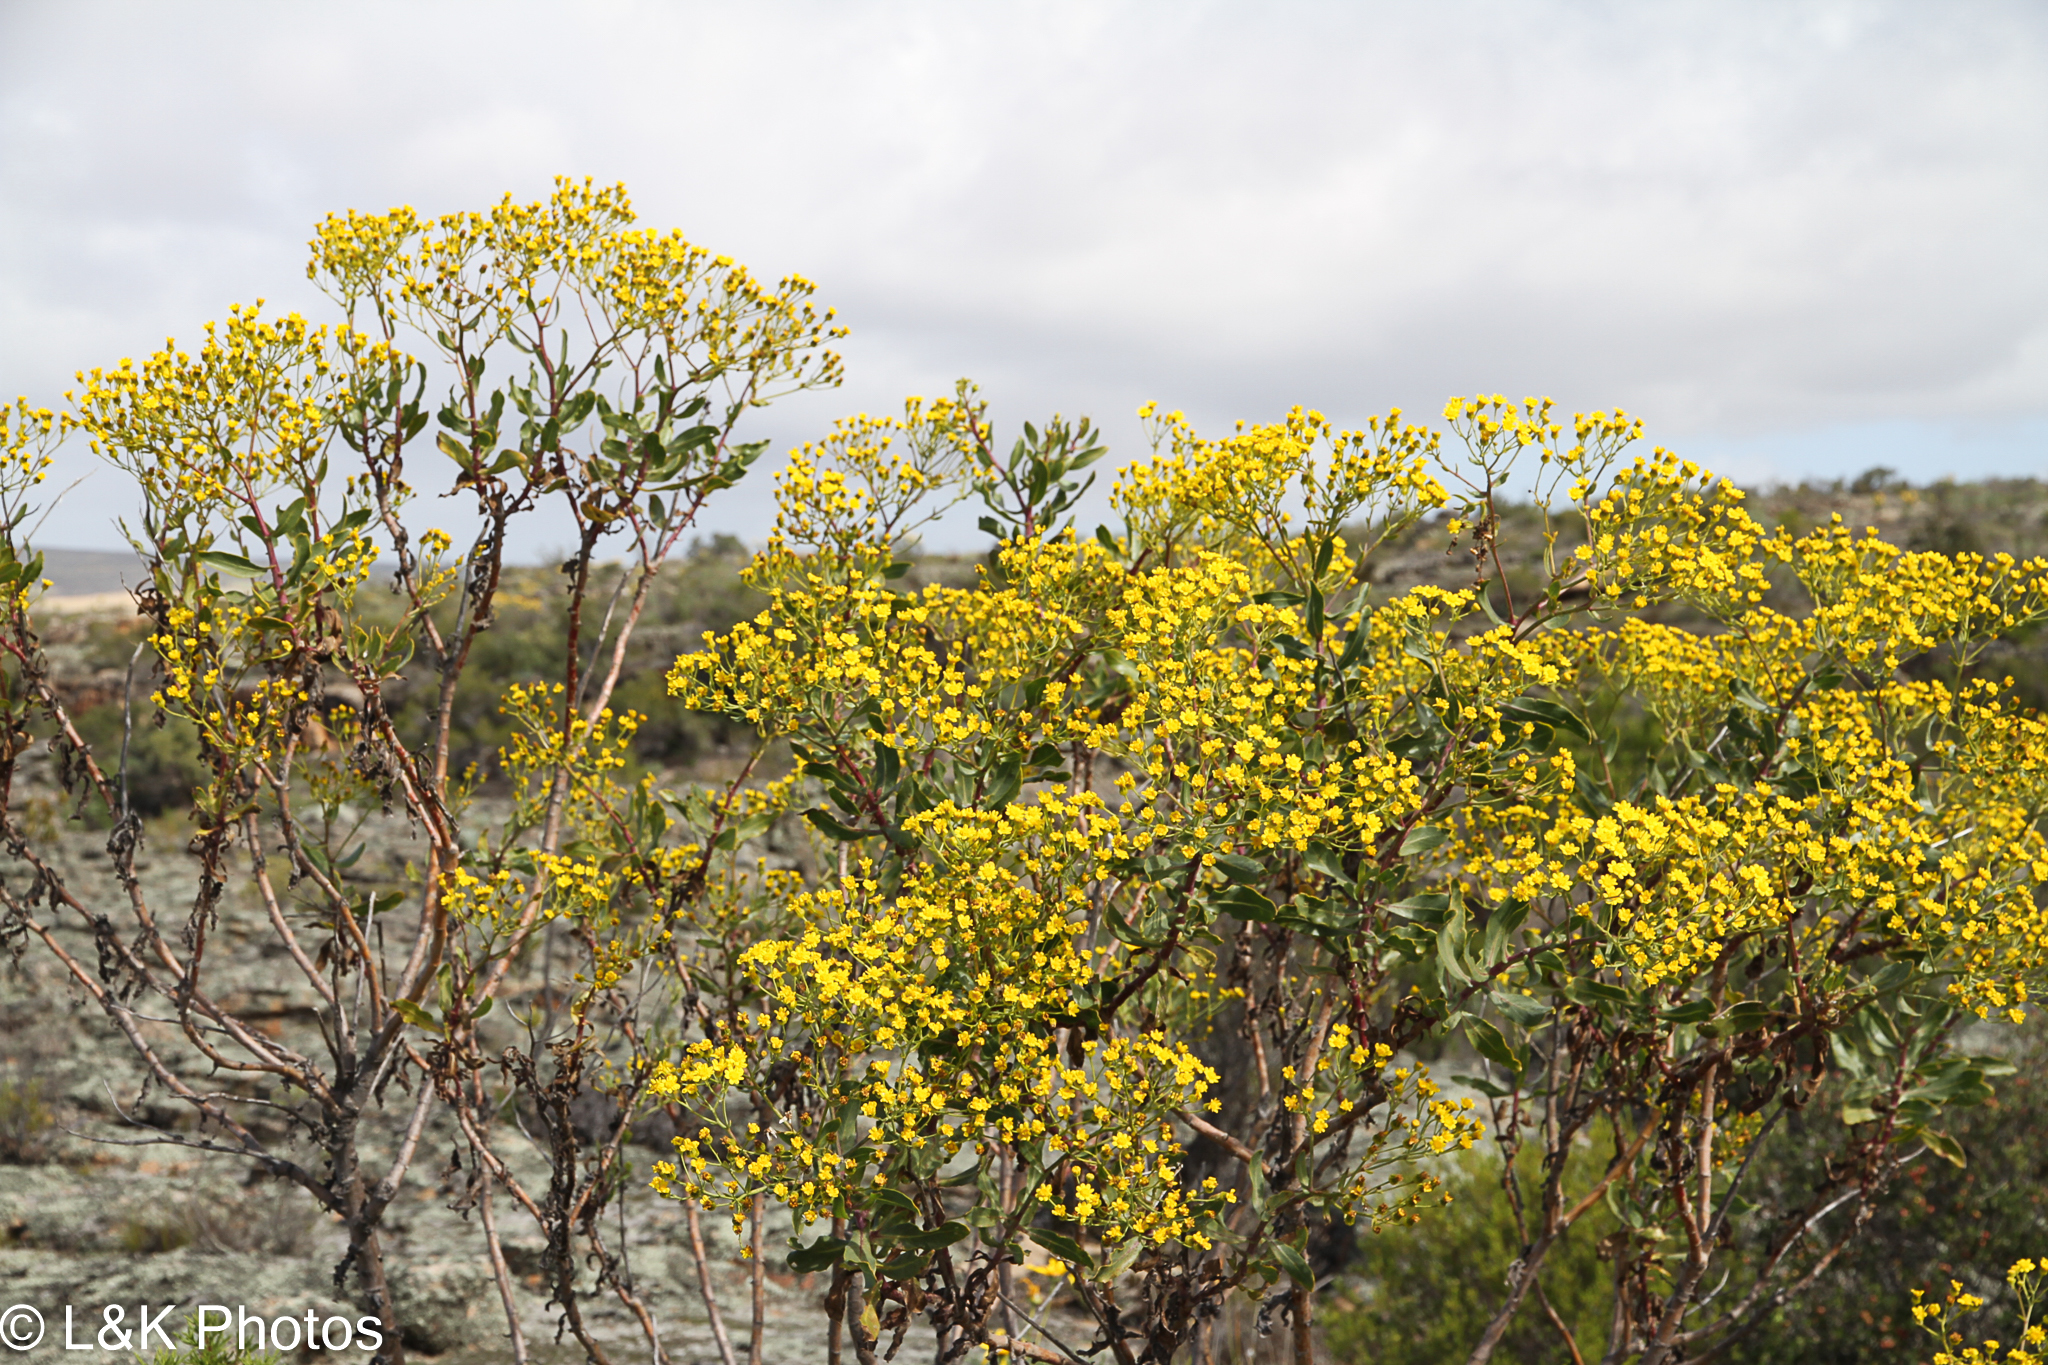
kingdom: Plantae
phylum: Tracheophyta
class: Magnoliopsida
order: Asterales
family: Asteraceae
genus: Senecio
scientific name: Senecio rigidus
